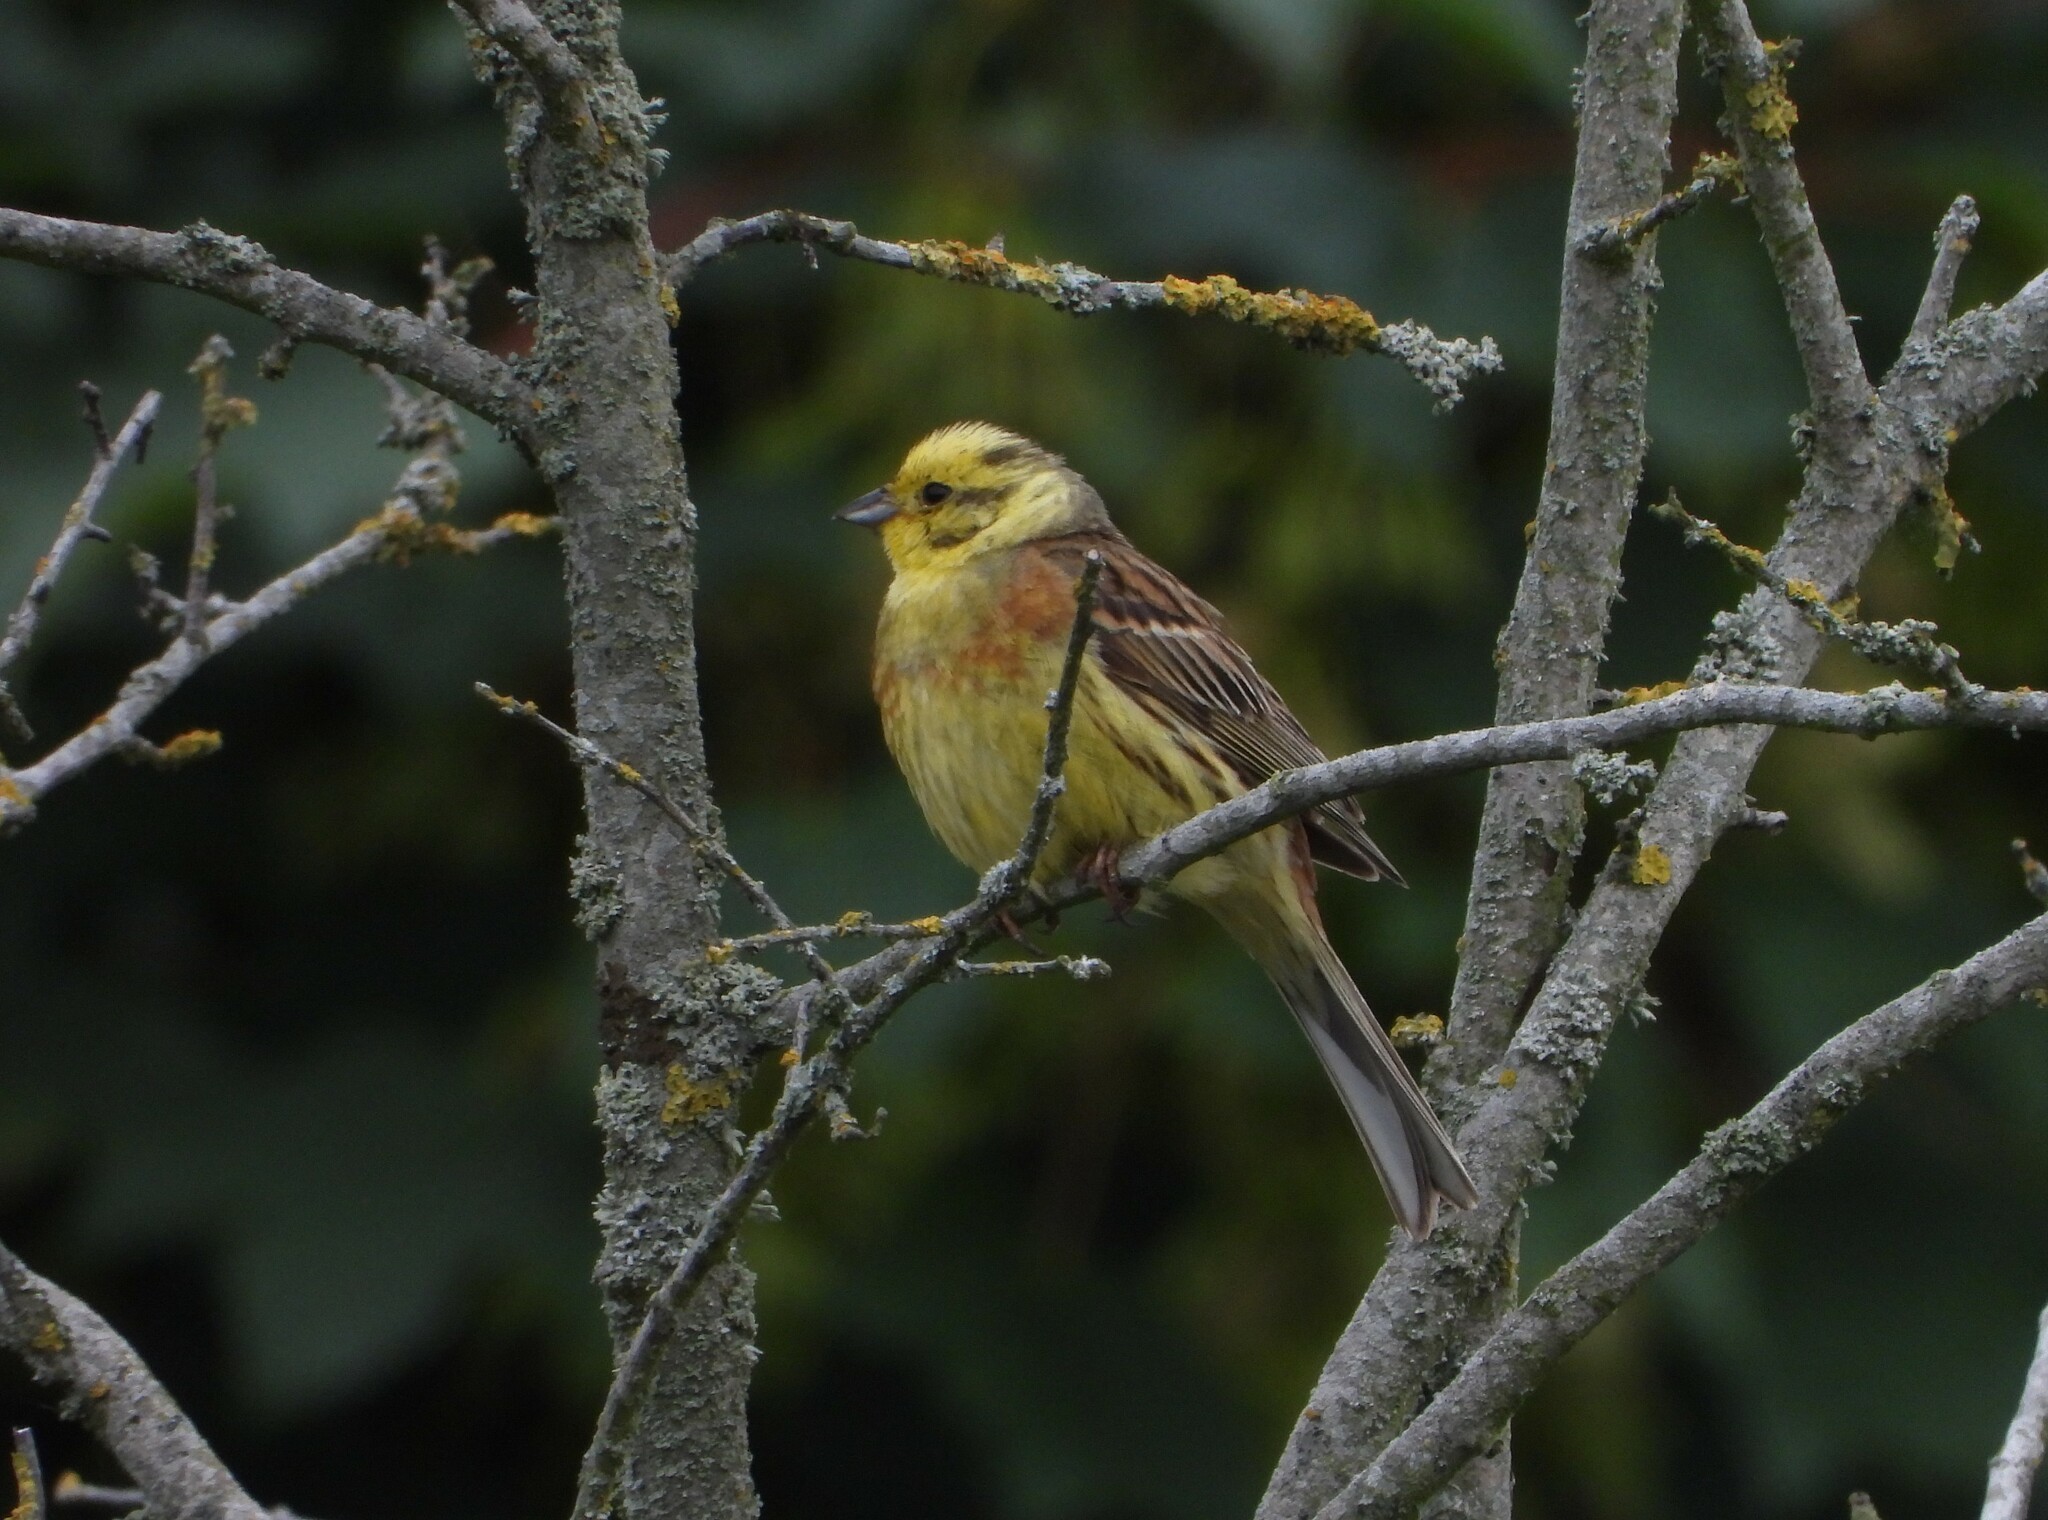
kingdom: Animalia
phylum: Chordata
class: Aves
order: Passeriformes
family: Emberizidae
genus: Emberiza
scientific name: Emberiza citrinella
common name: Yellowhammer
